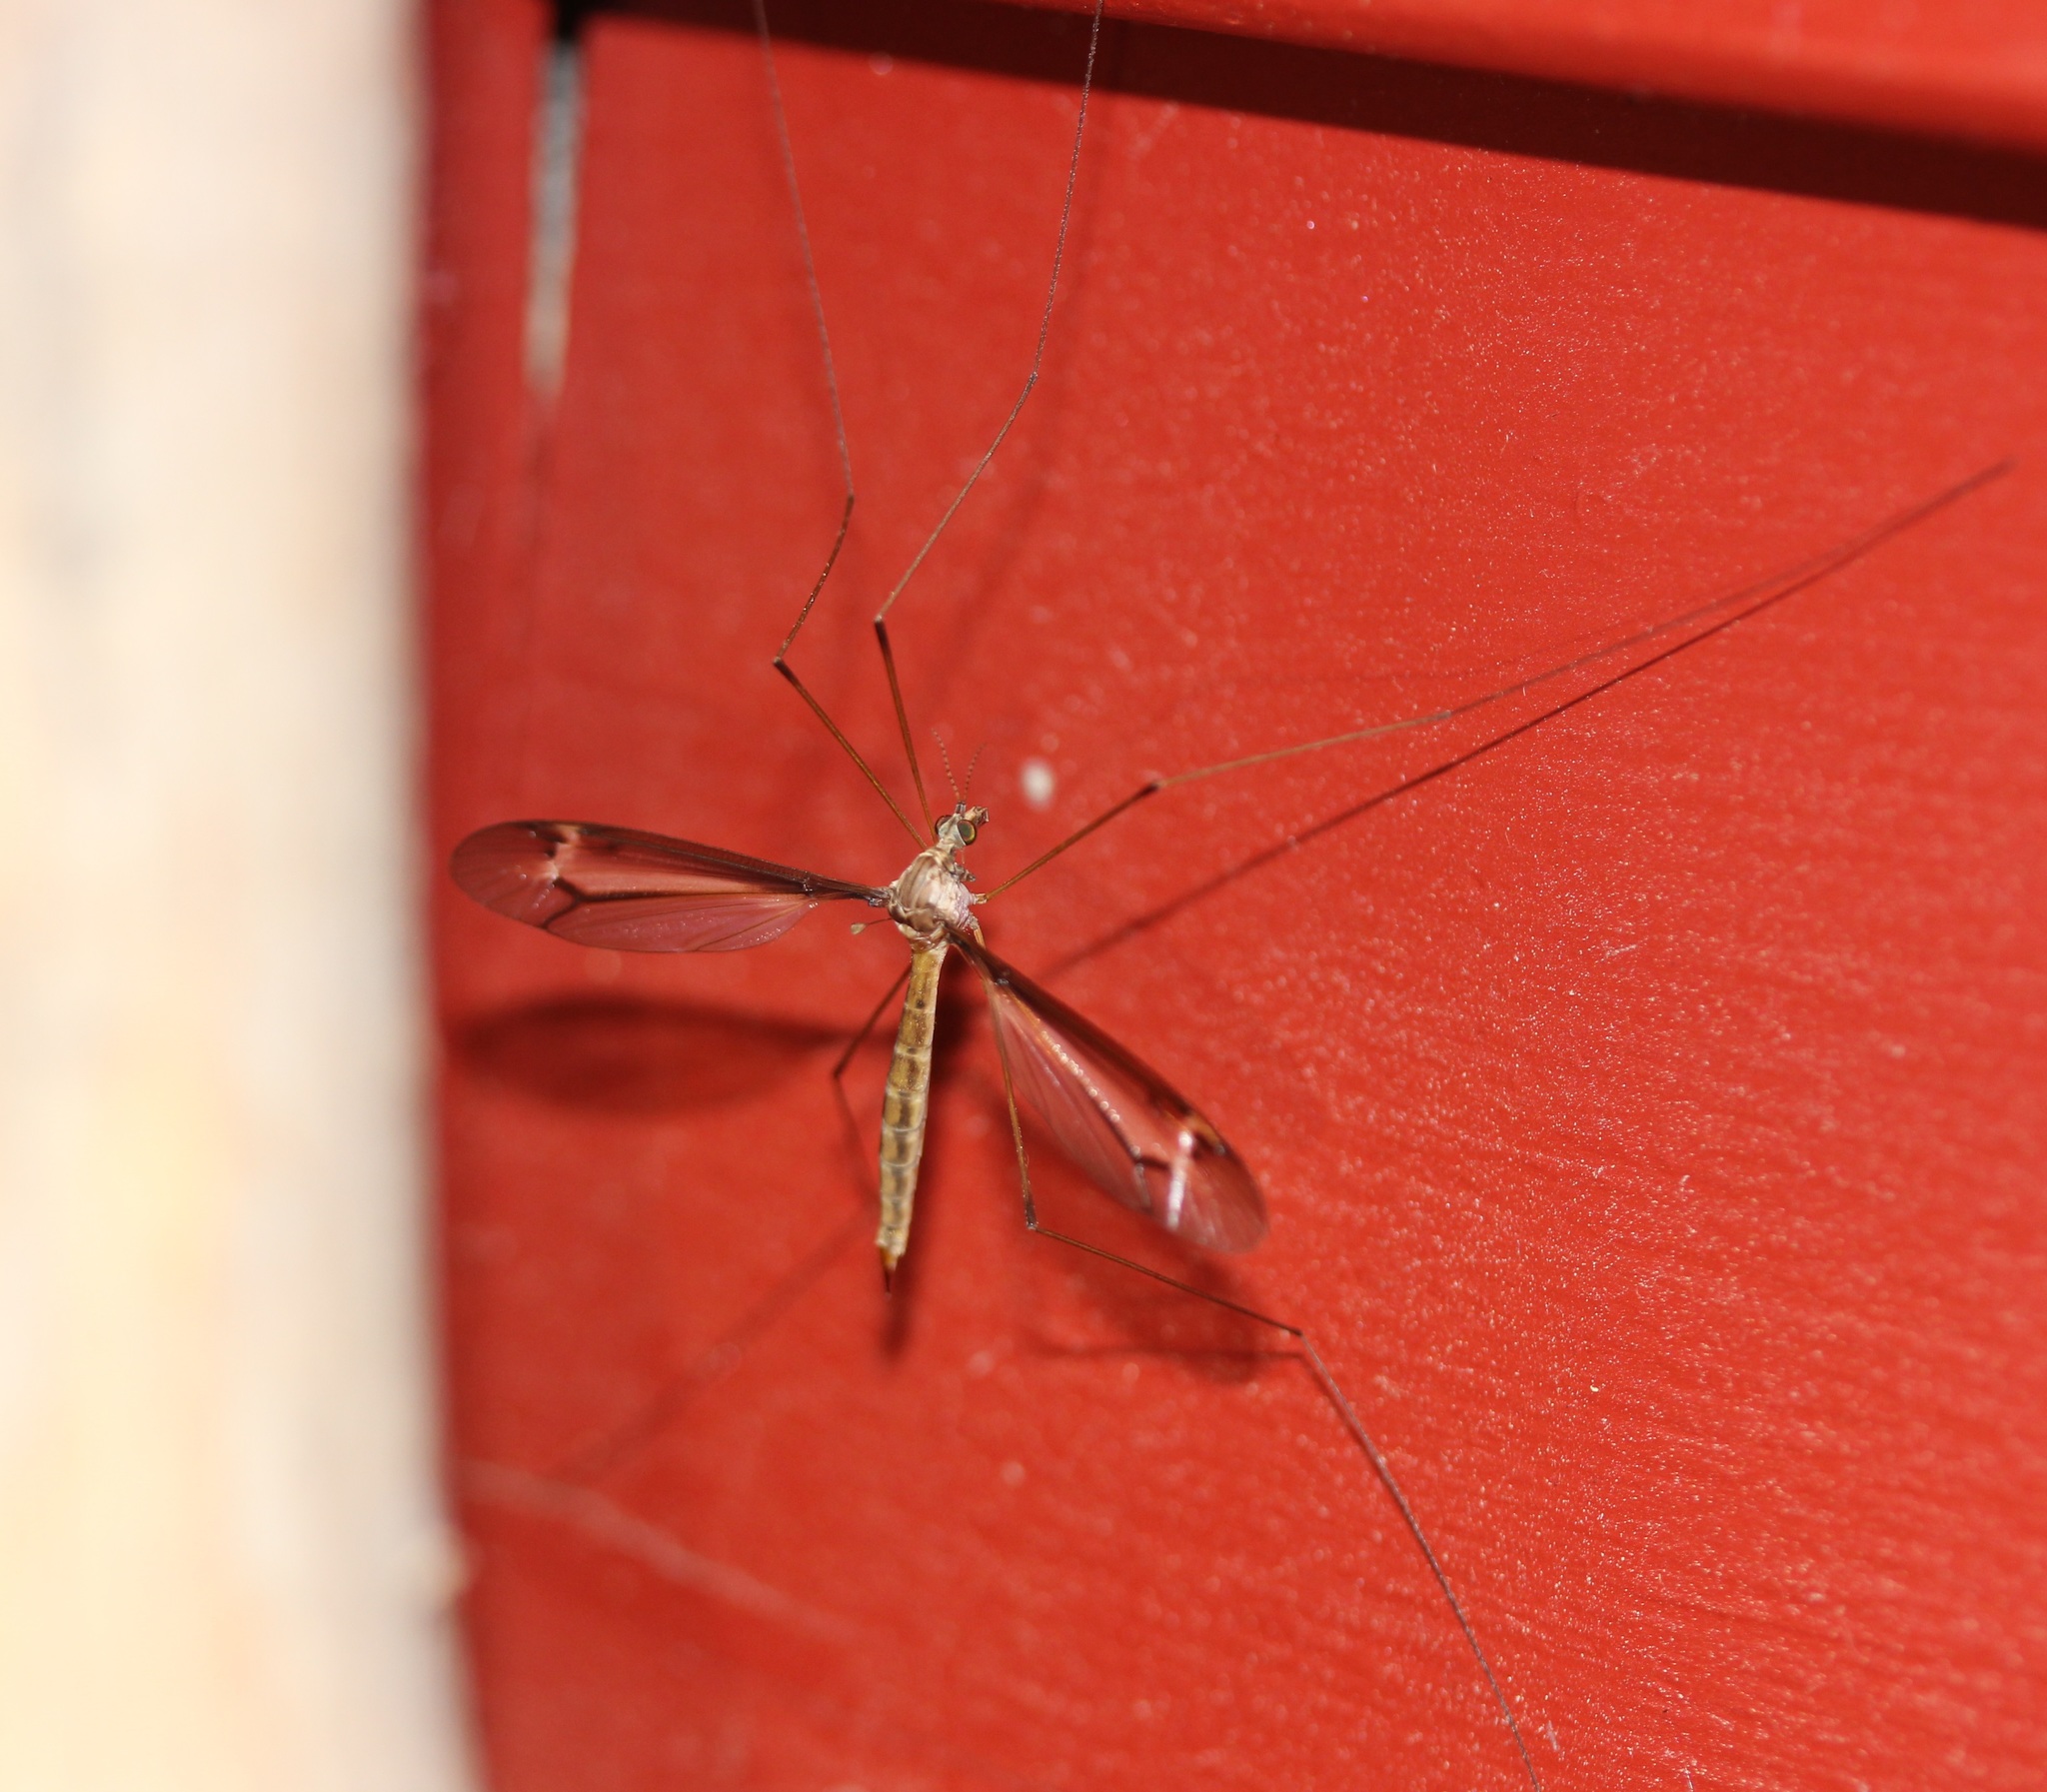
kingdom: Animalia
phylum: Arthropoda
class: Insecta
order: Diptera
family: Tipulidae
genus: Tipula
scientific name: Tipula tricolor
